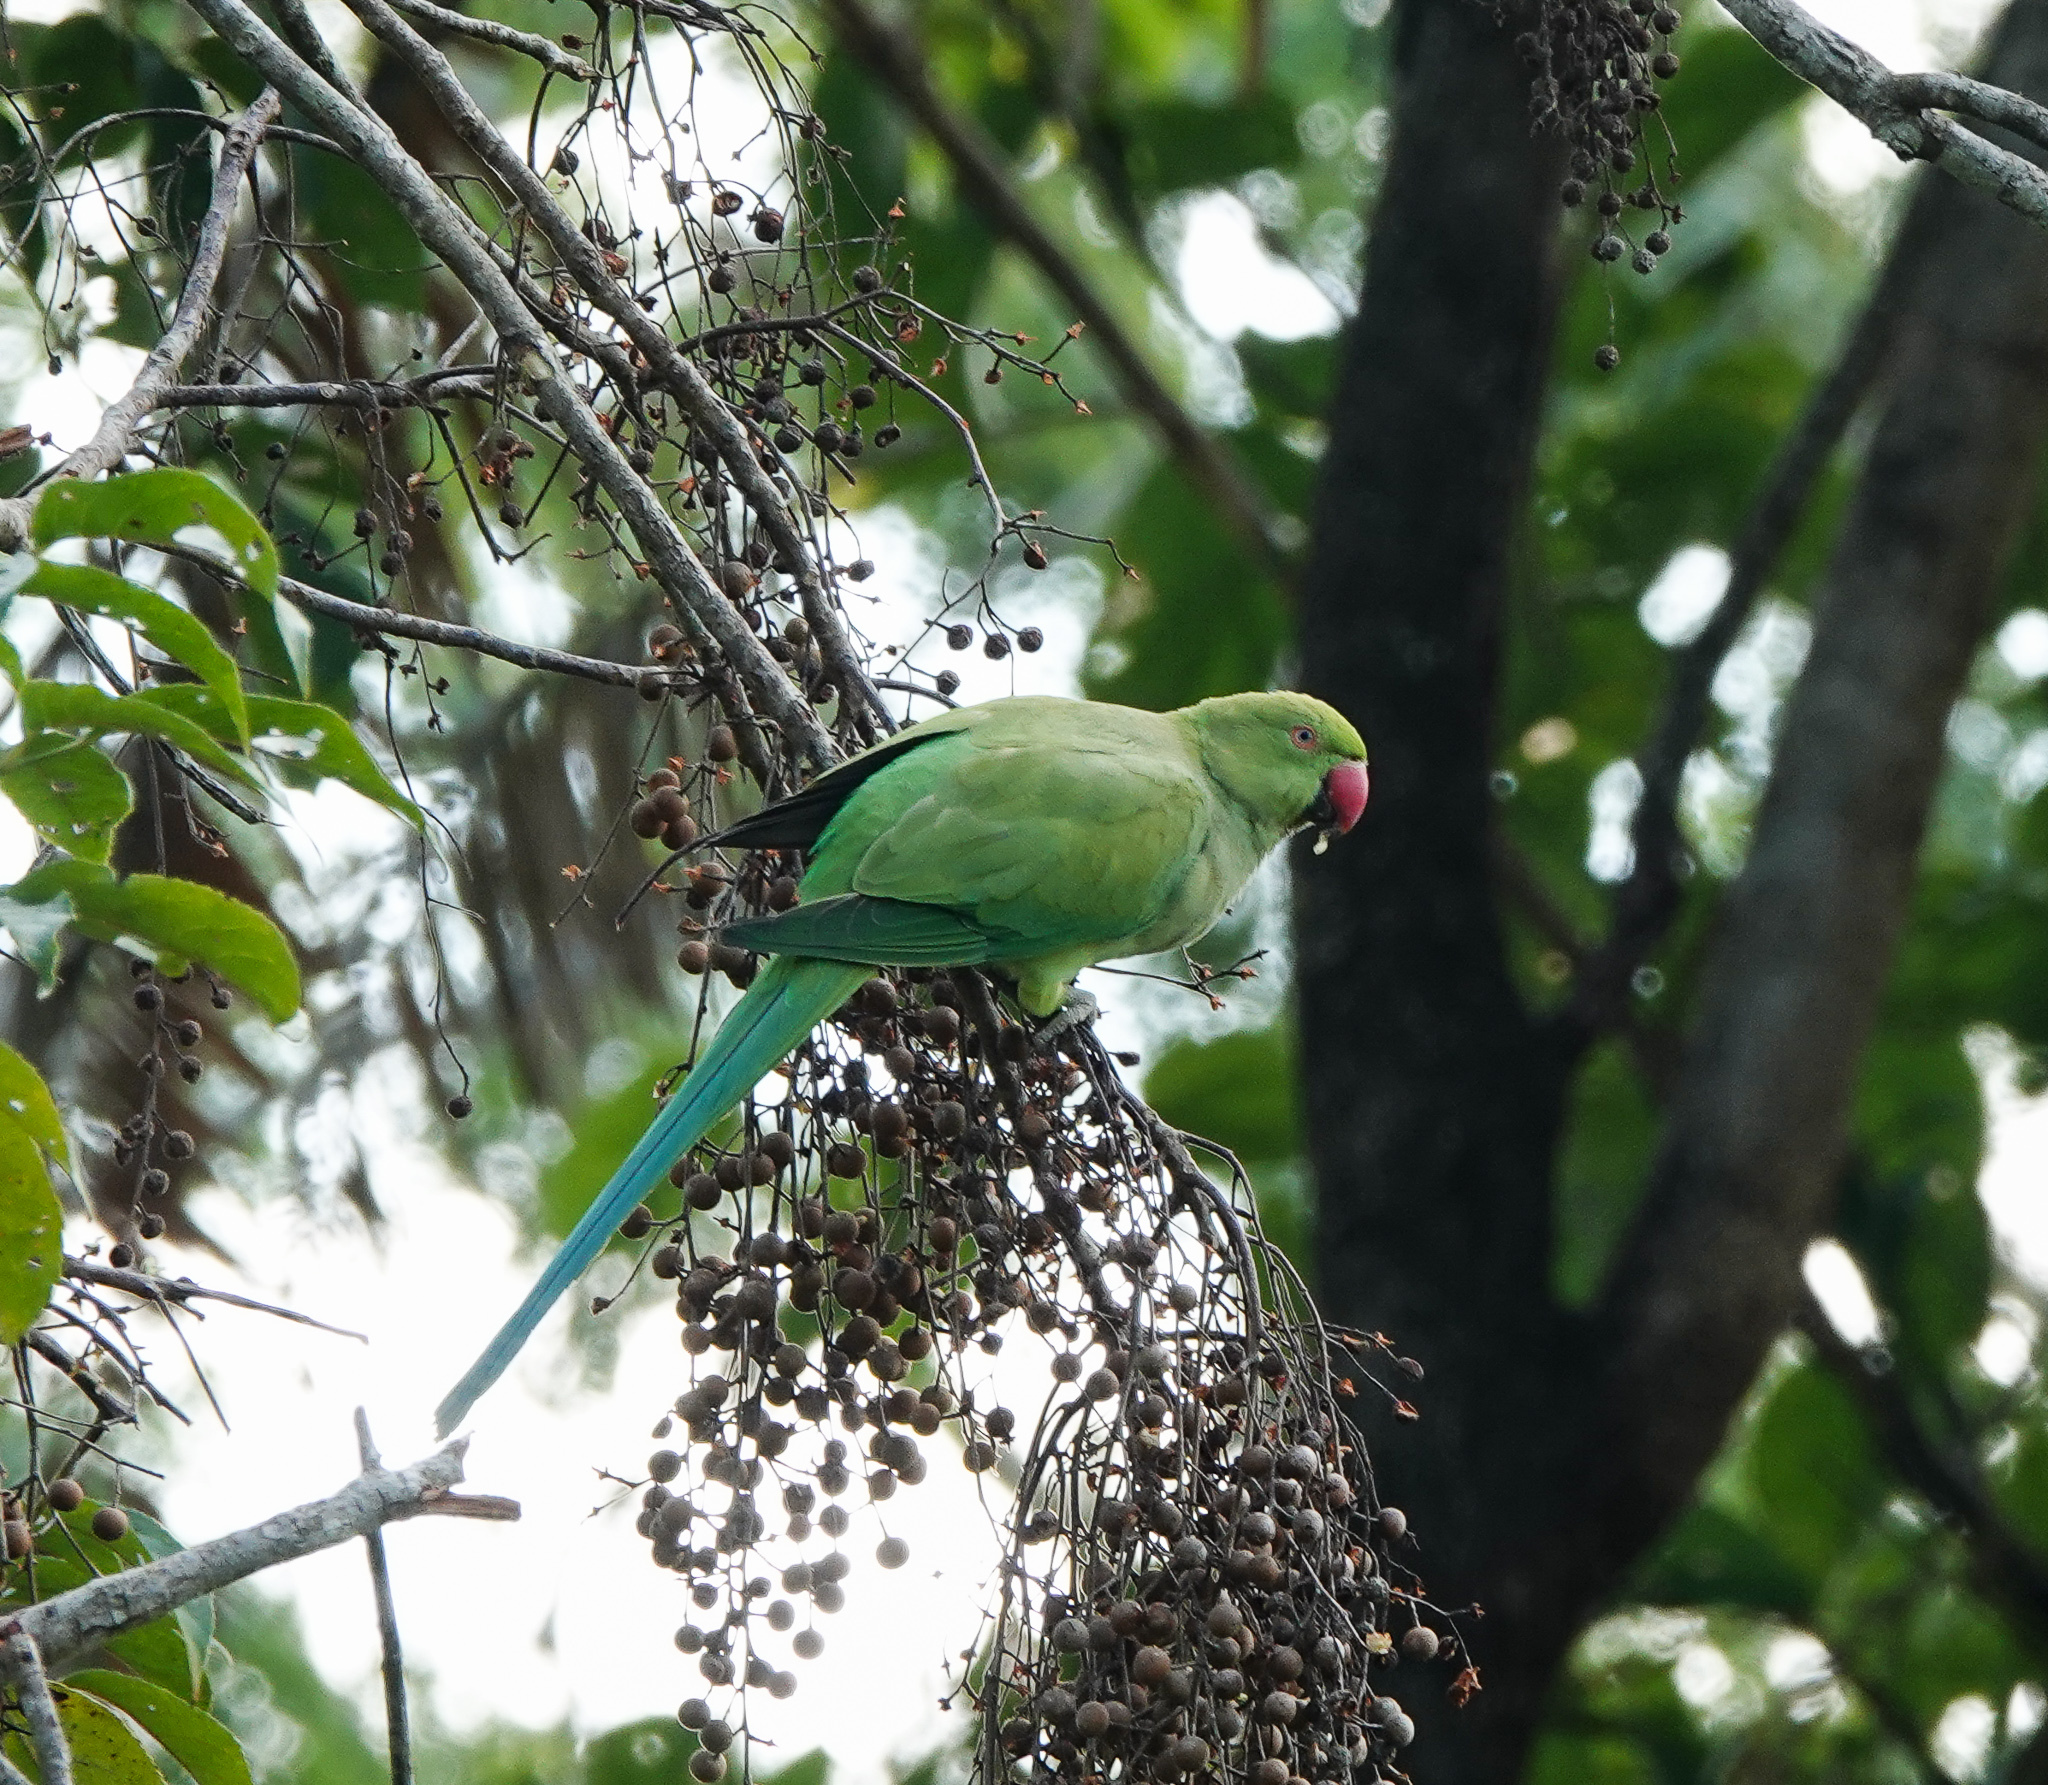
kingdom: Animalia
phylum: Chordata
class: Aves
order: Psittaciformes
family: Psittacidae
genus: Psittacula
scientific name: Psittacula krameri
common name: Rose-ringed parakeet
